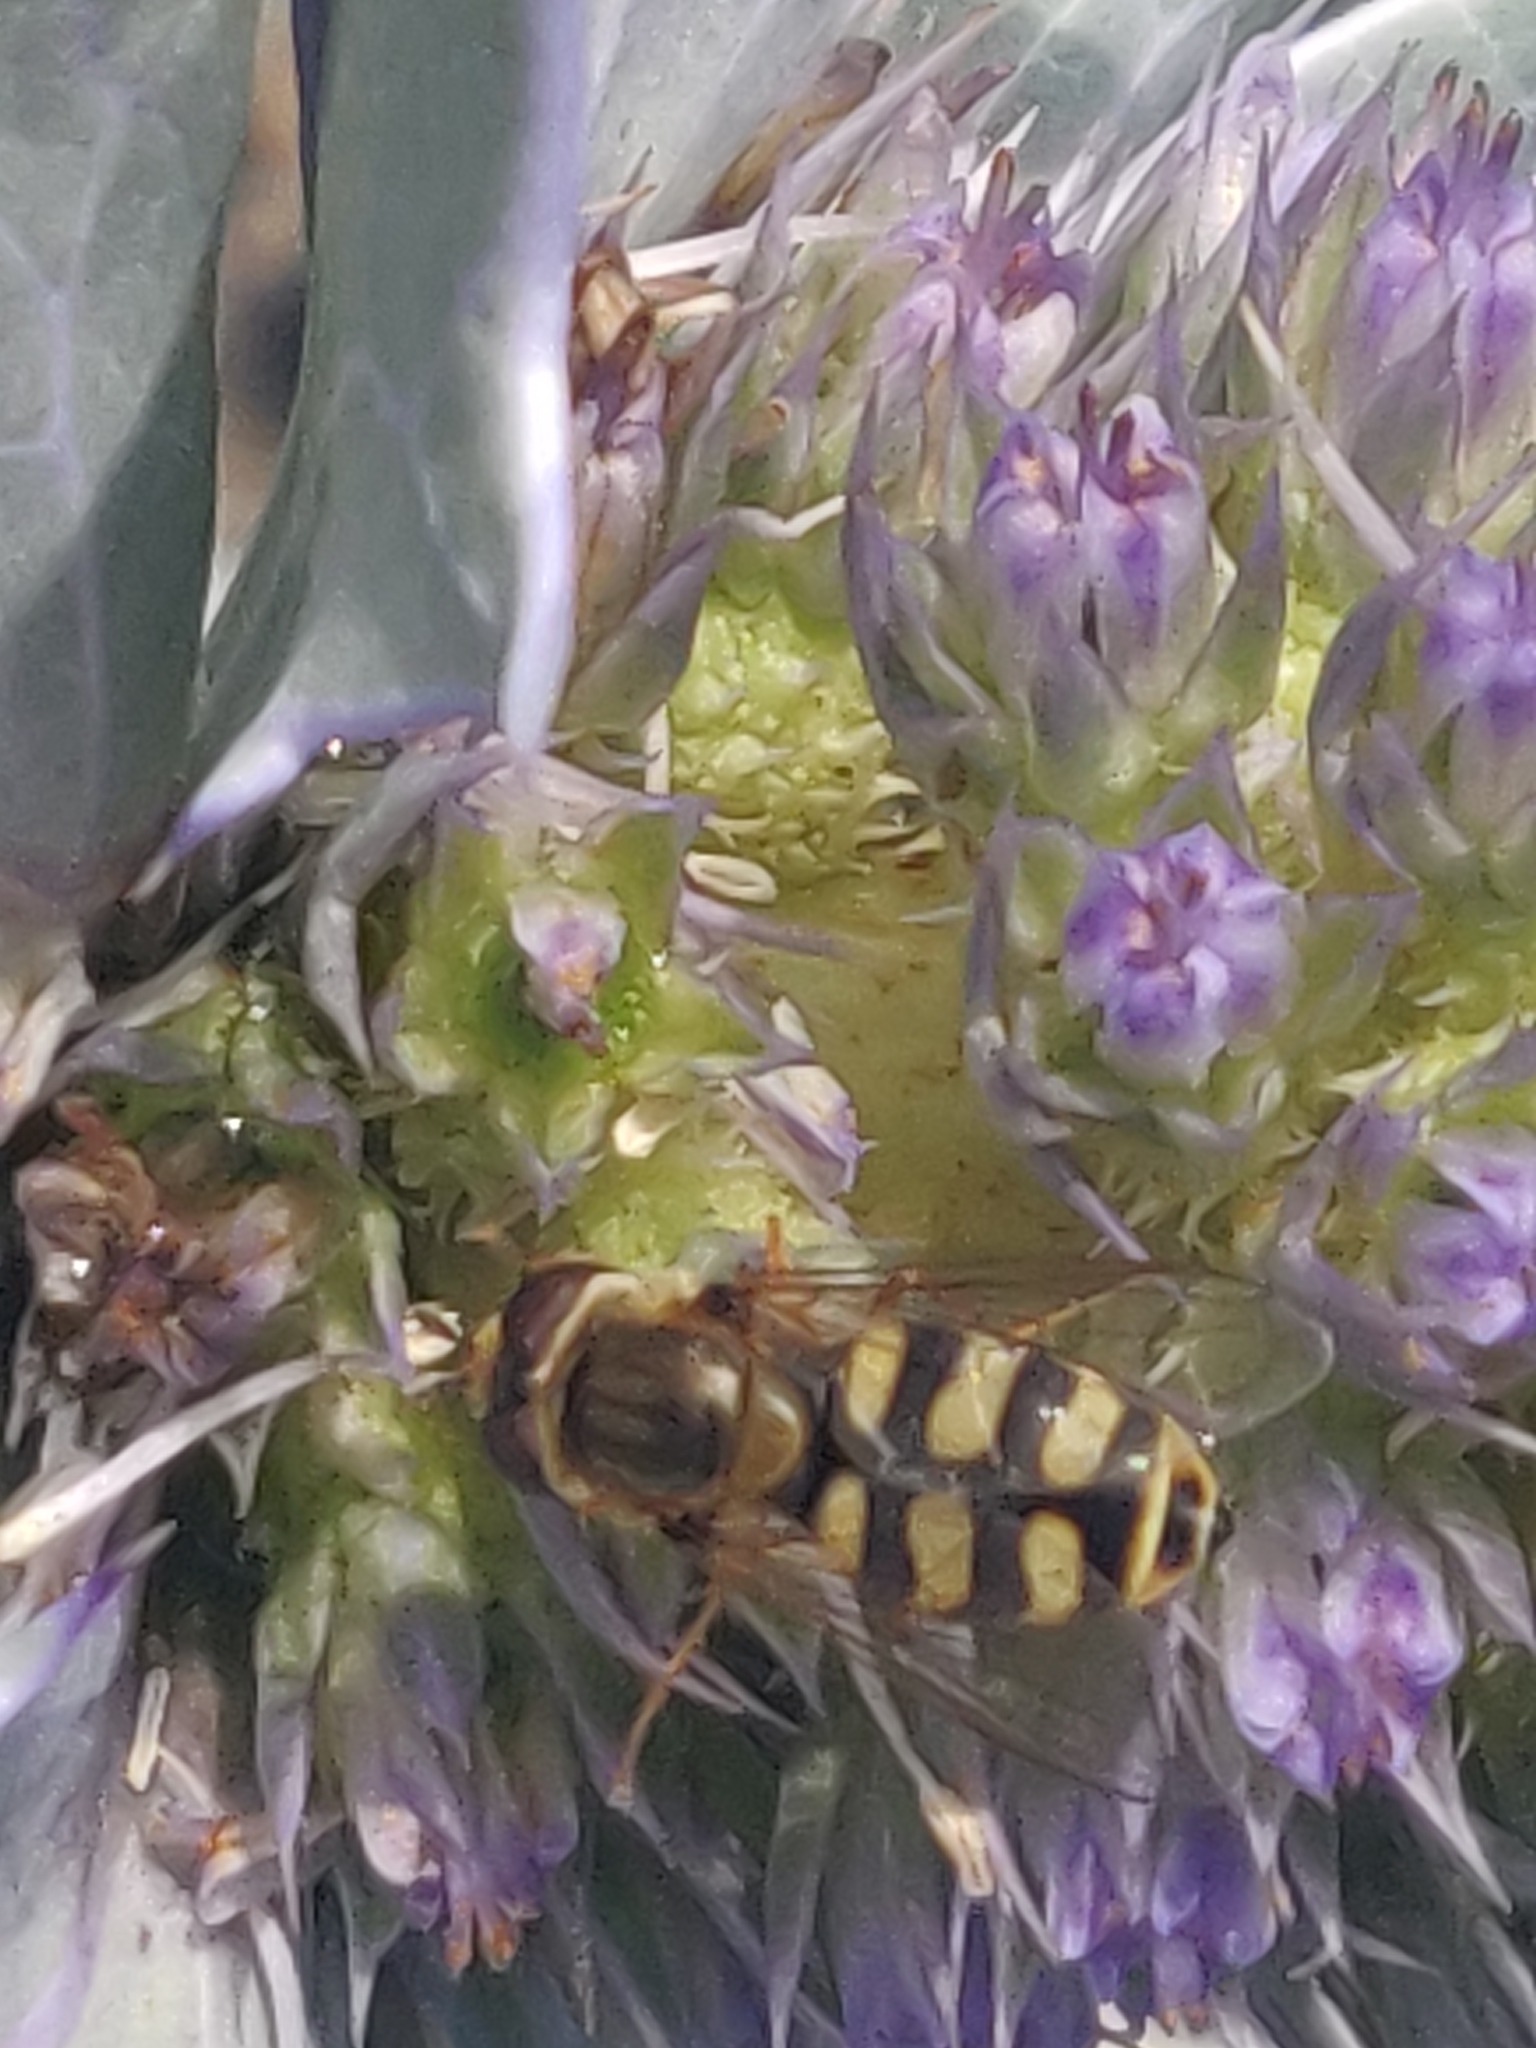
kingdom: Animalia
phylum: Arthropoda
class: Insecta
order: Diptera
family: Syrphidae
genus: Eupeodes
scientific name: Eupeodes corollae
